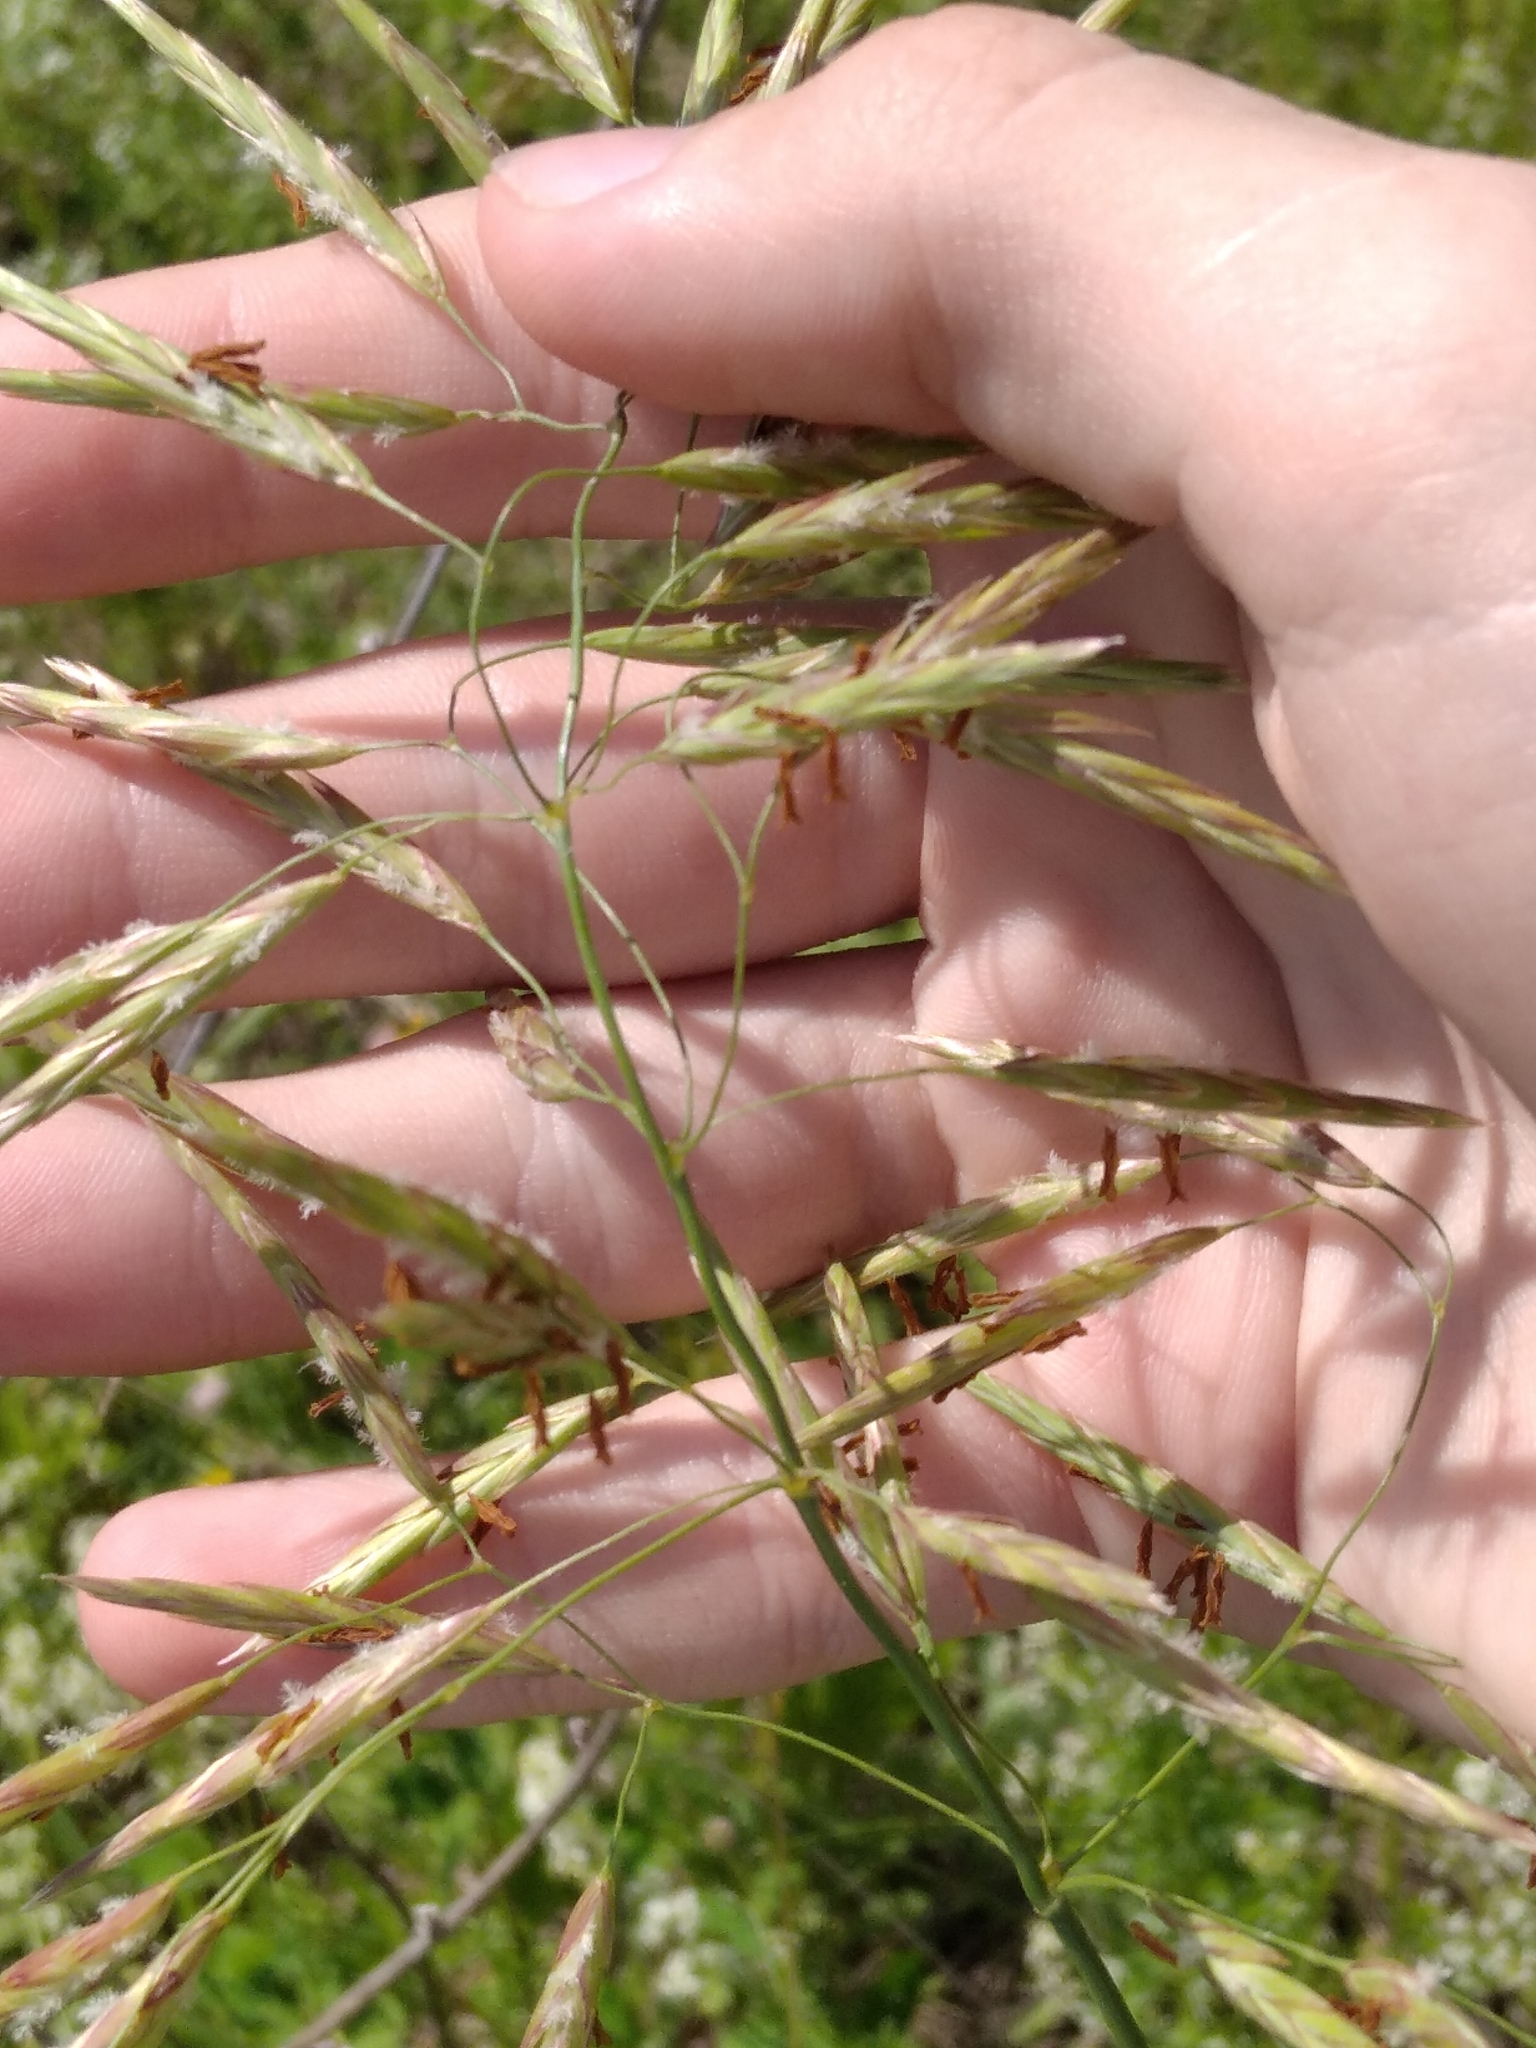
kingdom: Plantae
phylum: Tracheophyta
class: Liliopsida
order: Poales
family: Poaceae
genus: Bromus
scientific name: Bromus inermis
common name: Smooth brome
